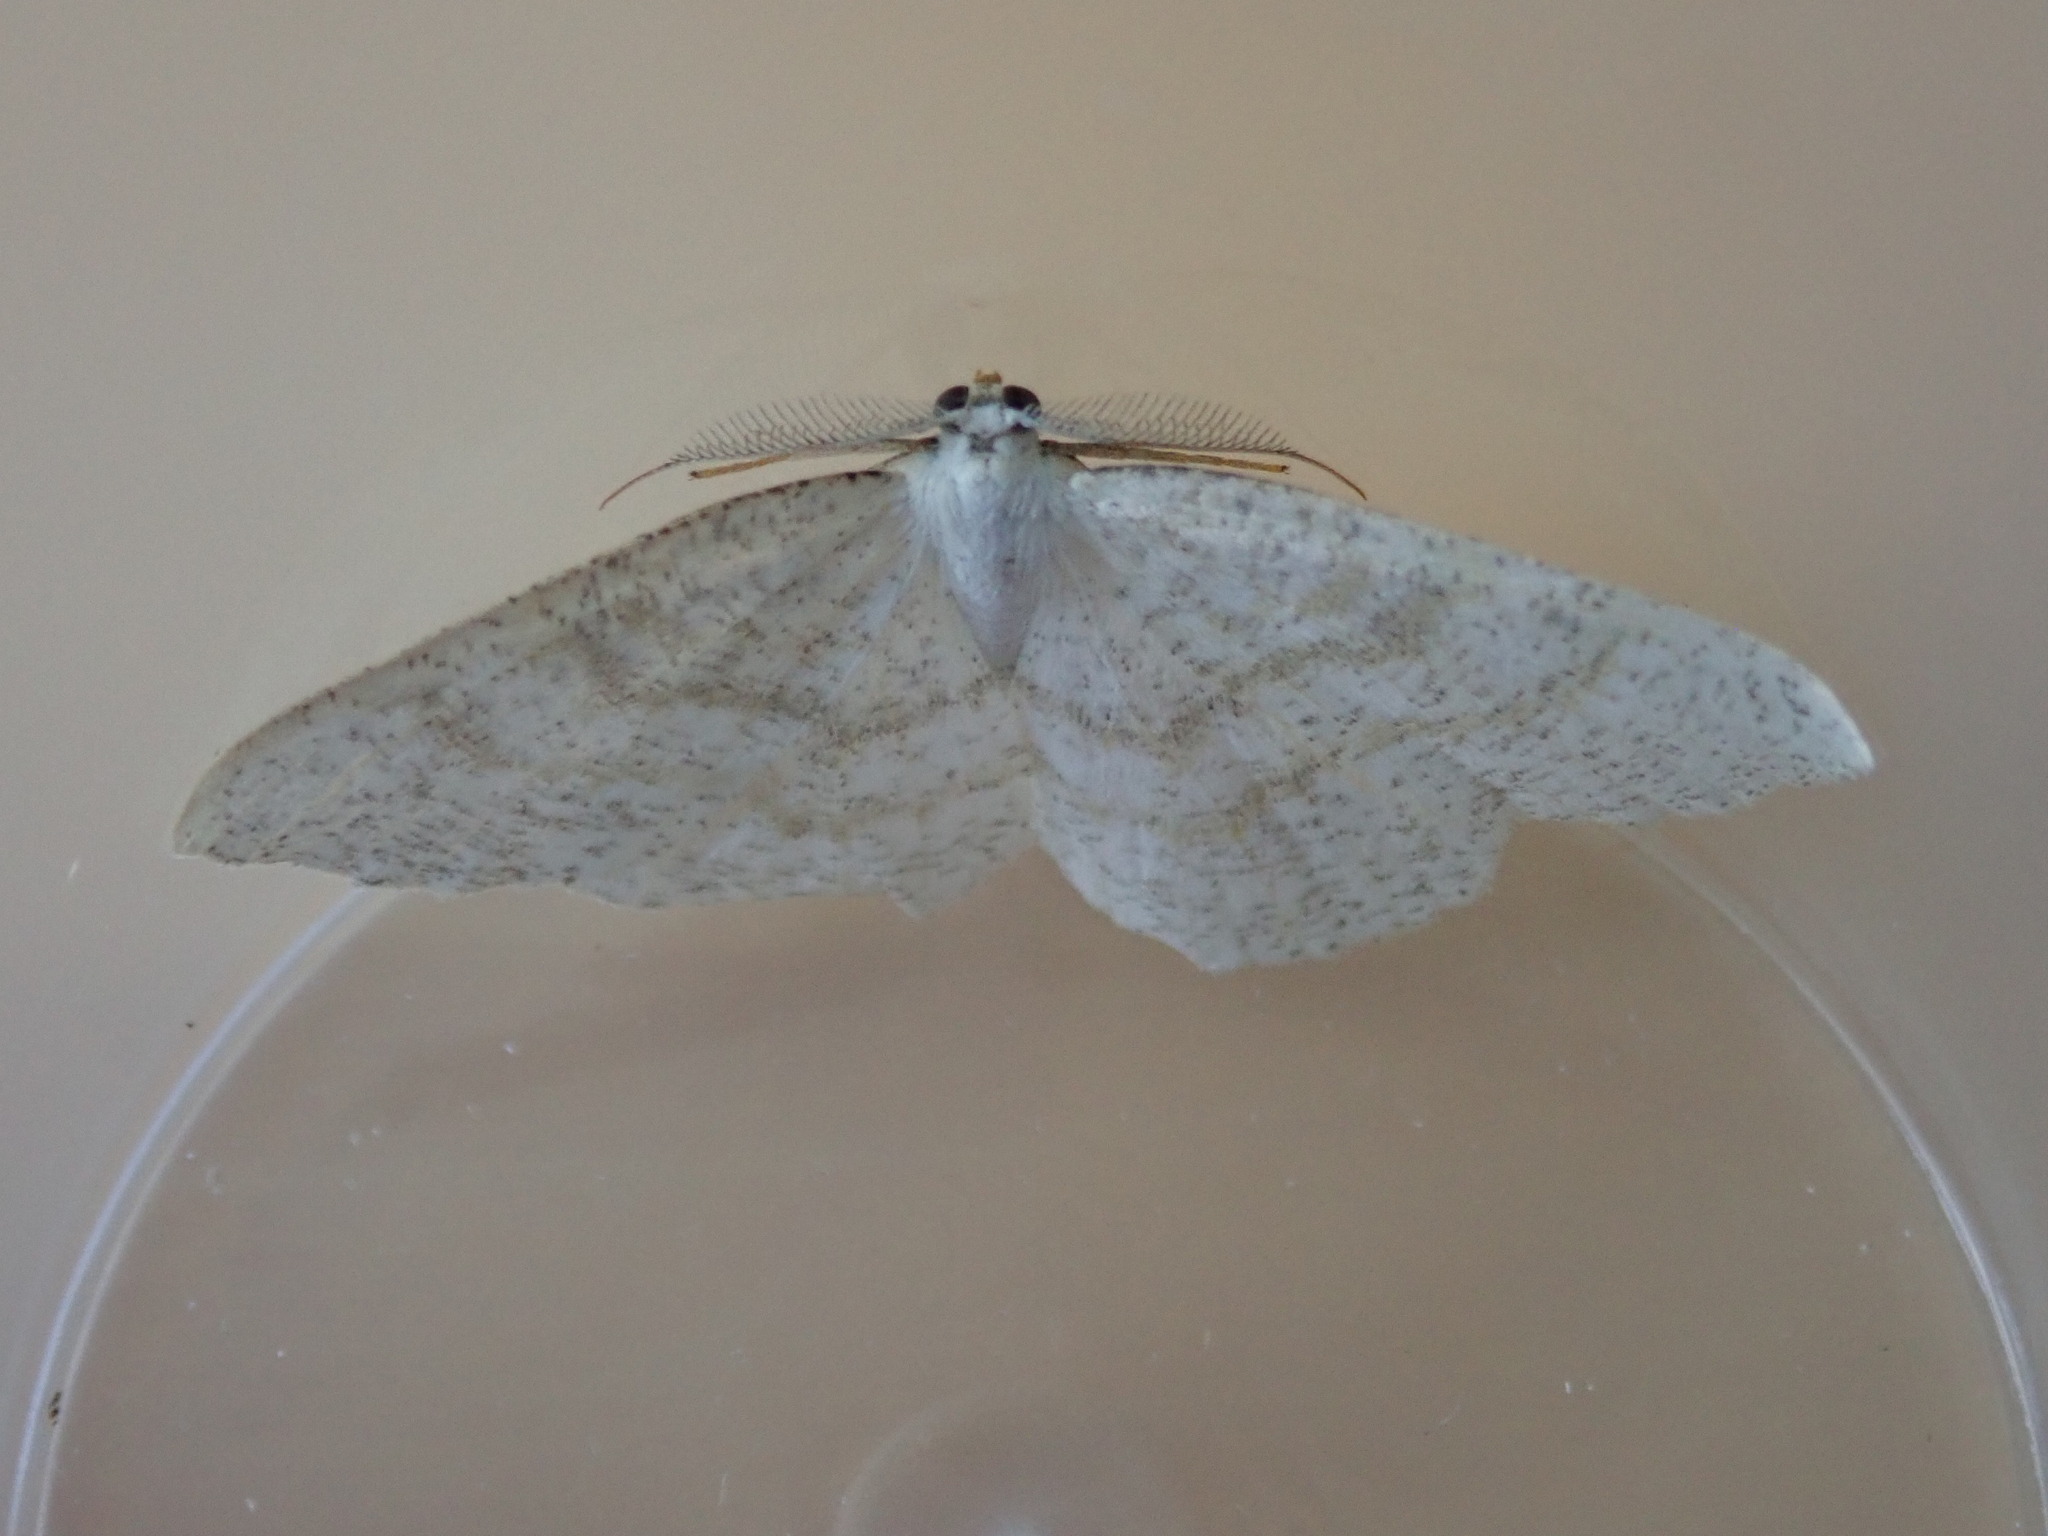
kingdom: Animalia
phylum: Arthropoda
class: Insecta
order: Lepidoptera
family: Geometridae
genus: Cabera
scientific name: Cabera exanthemata
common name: Common wave
